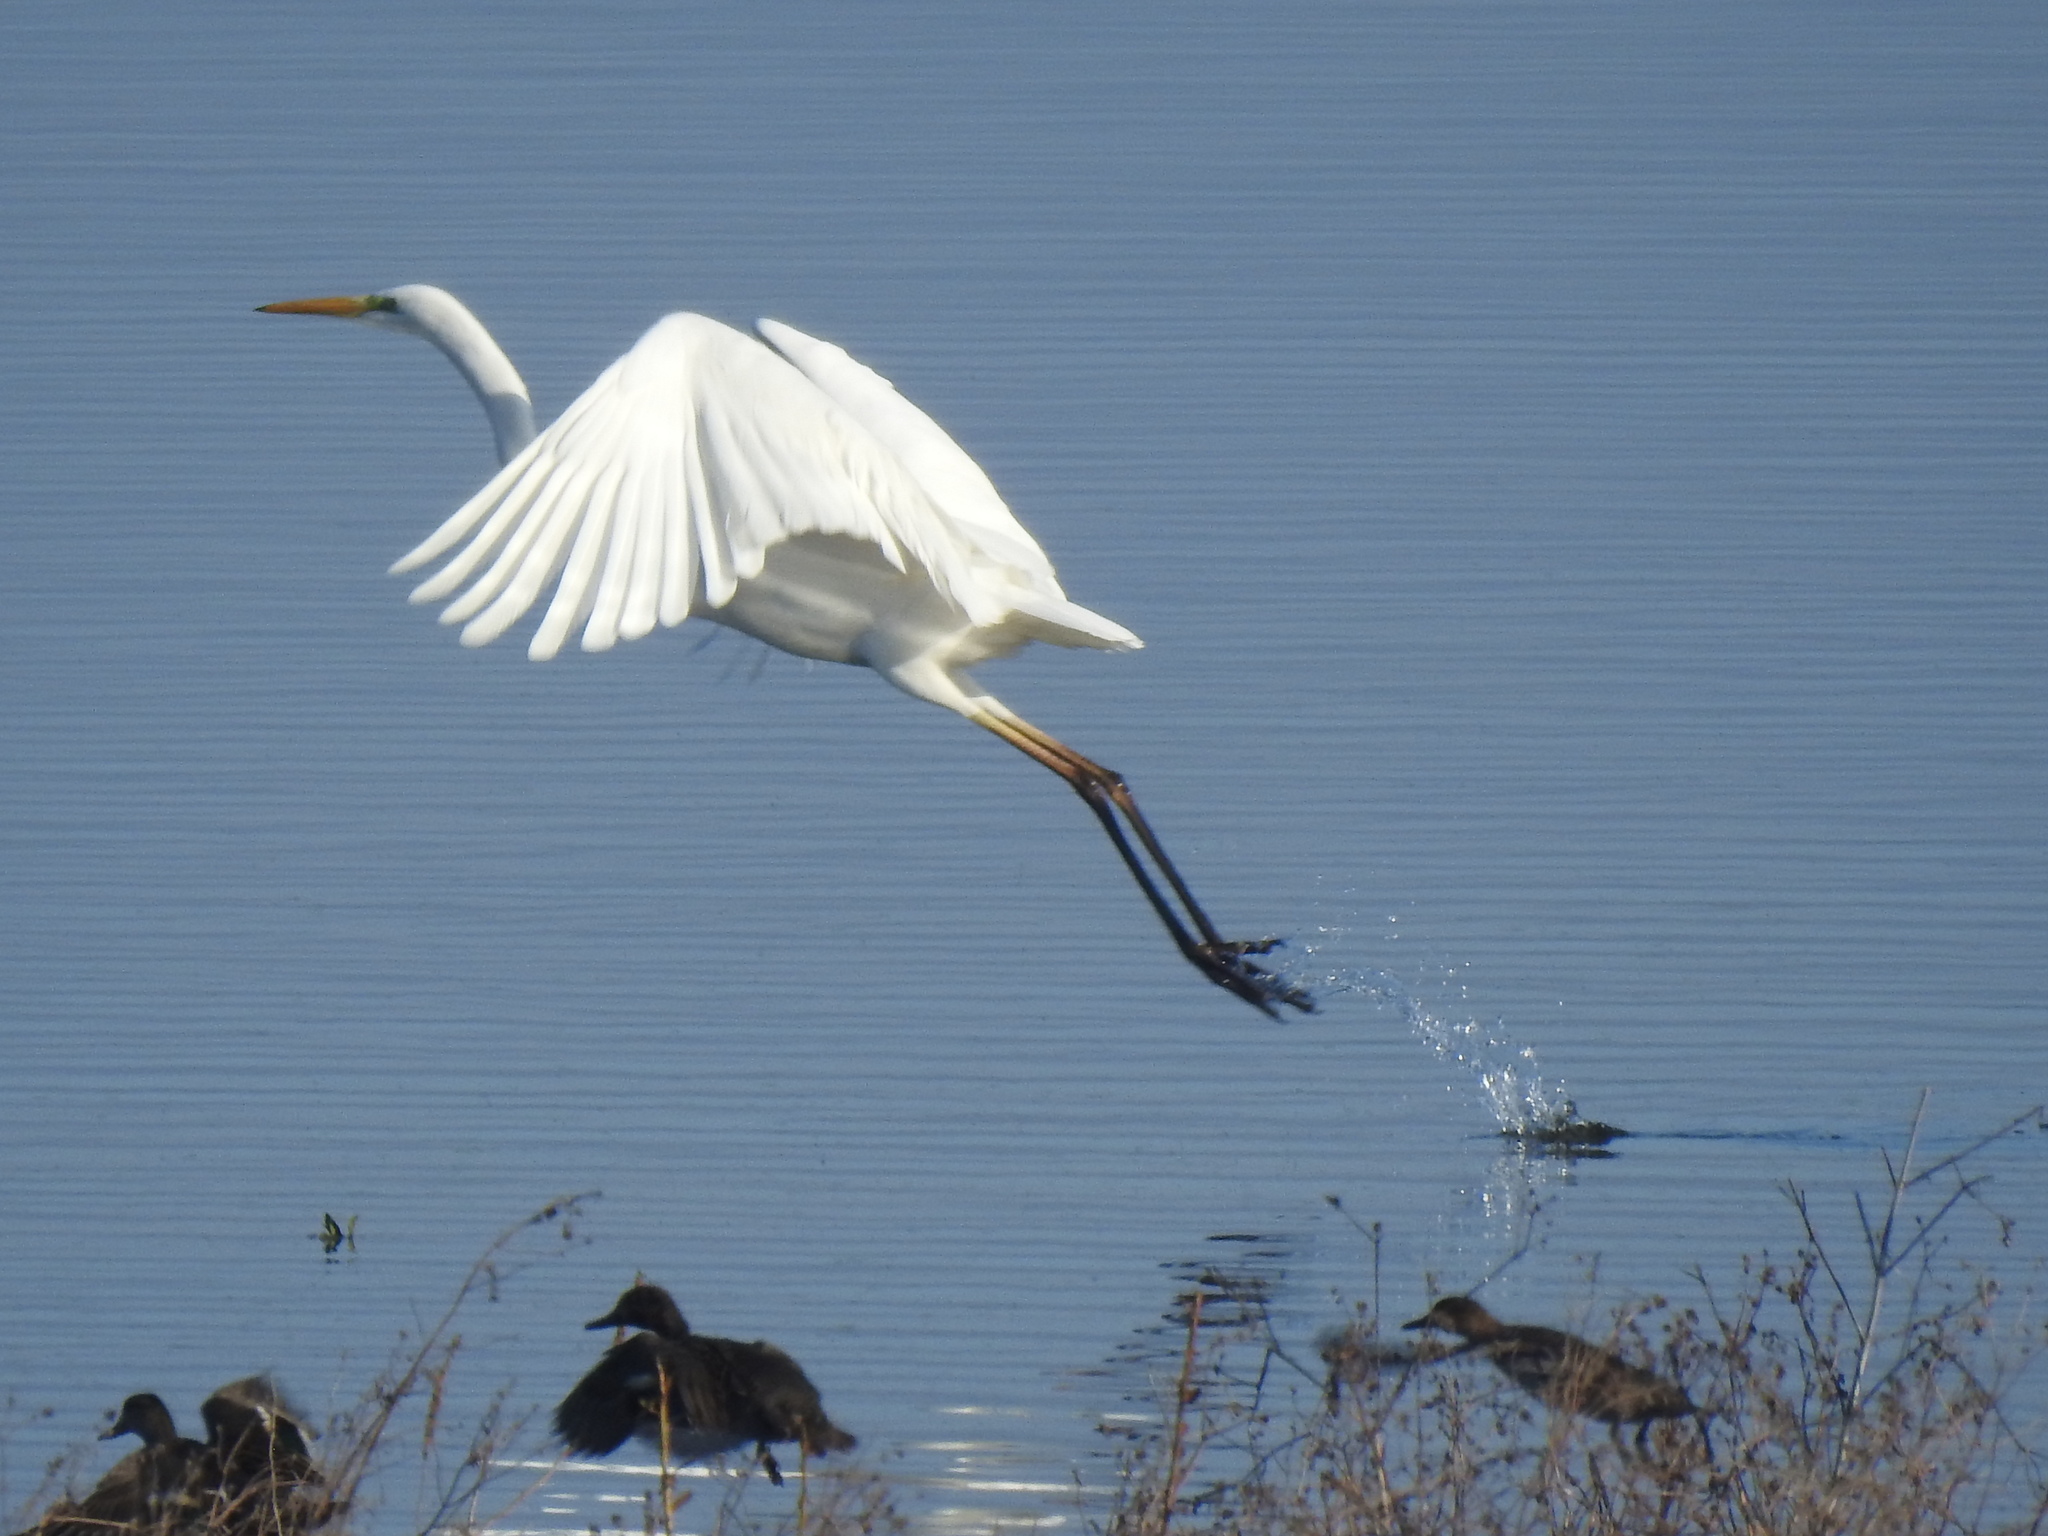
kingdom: Animalia
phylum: Chordata
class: Aves
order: Pelecaniformes
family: Ardeidae
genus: Ardea
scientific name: Ardea alba
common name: Great egret
